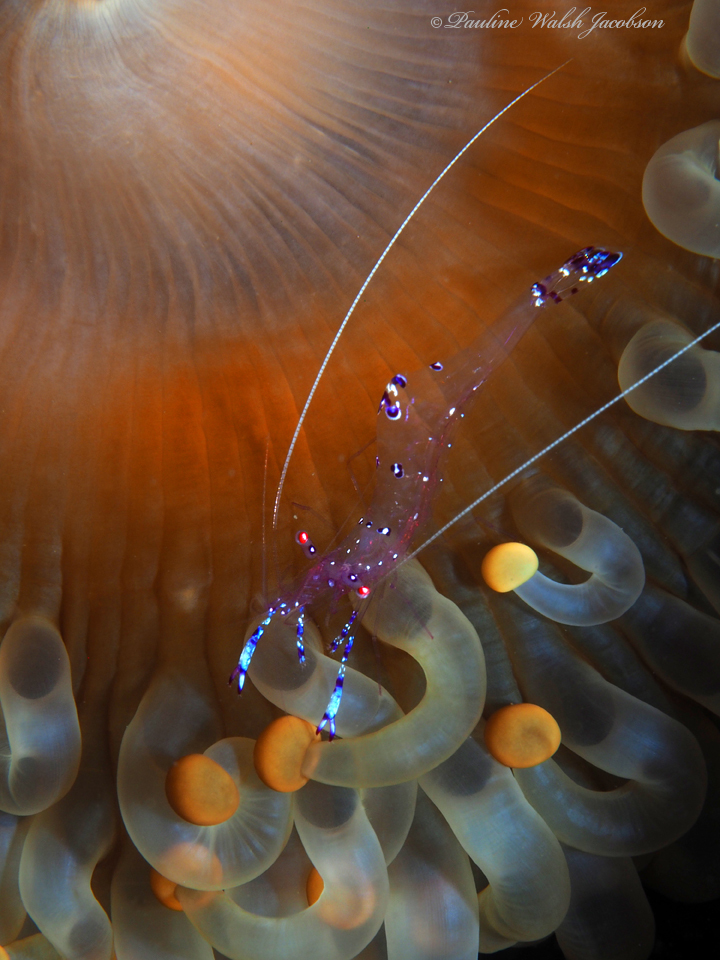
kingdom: Animalia
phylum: Cnidaria
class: Anthozoa
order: Corallimorpharia
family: Corallimorphidae
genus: Paracorynactis
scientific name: Paracorynactis hoplites
